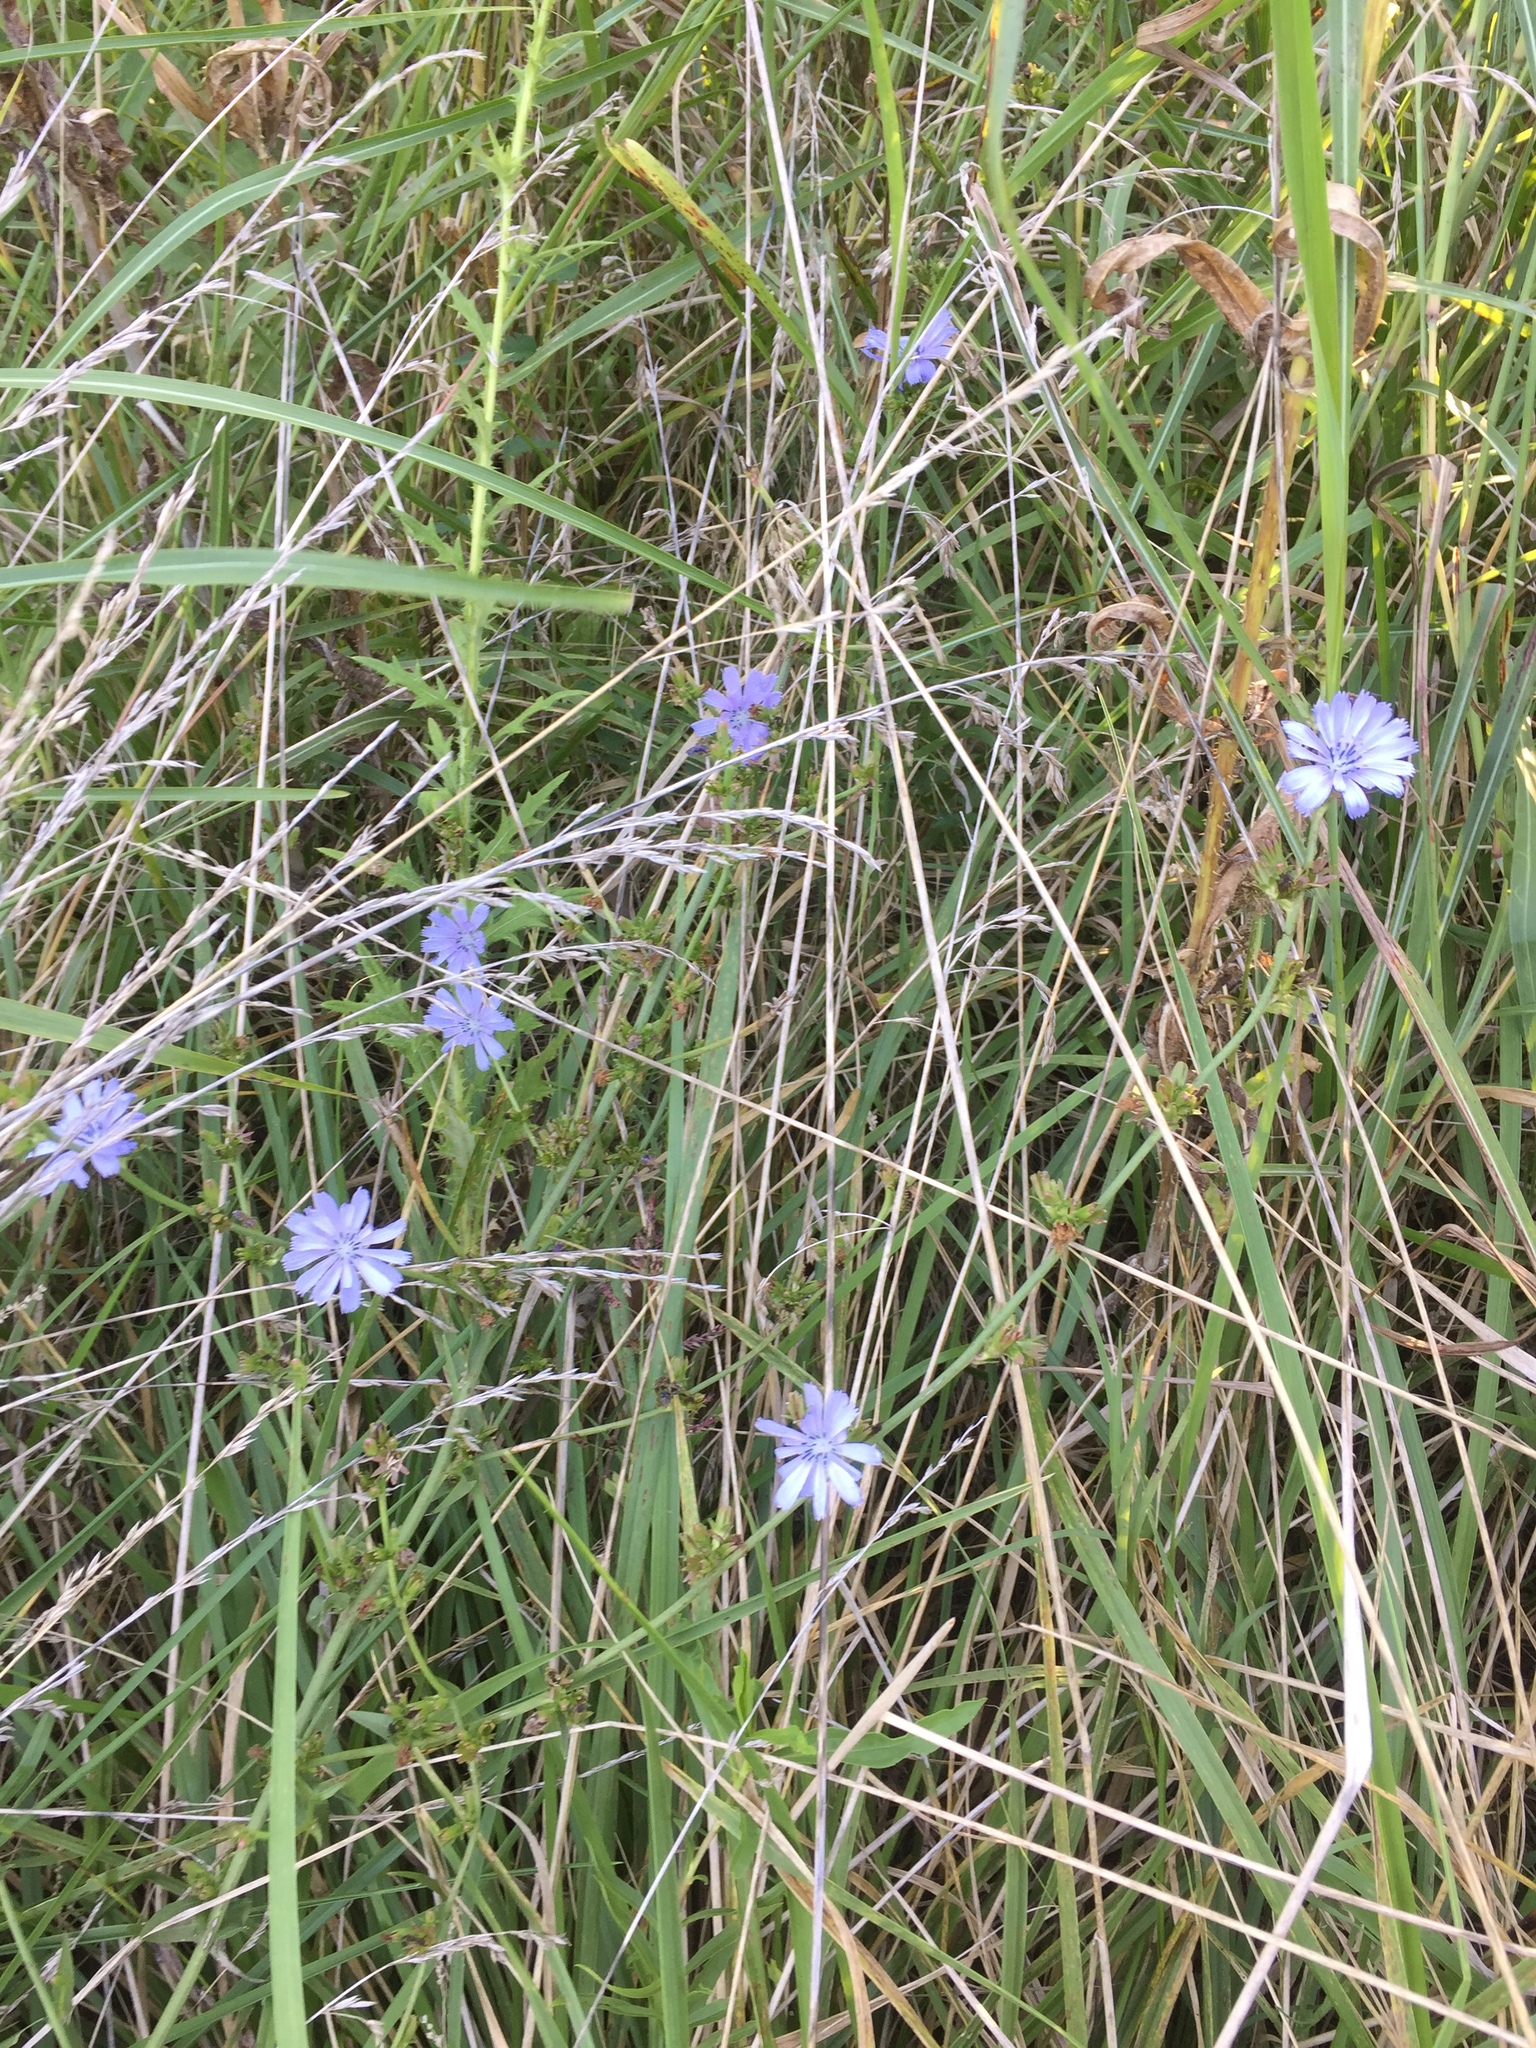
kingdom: Plantae
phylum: Tracheophyta
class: Magnoliopsida
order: Asterales
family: Asteraceae
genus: Cichorium
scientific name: Cichorium intybus
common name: Chicory
